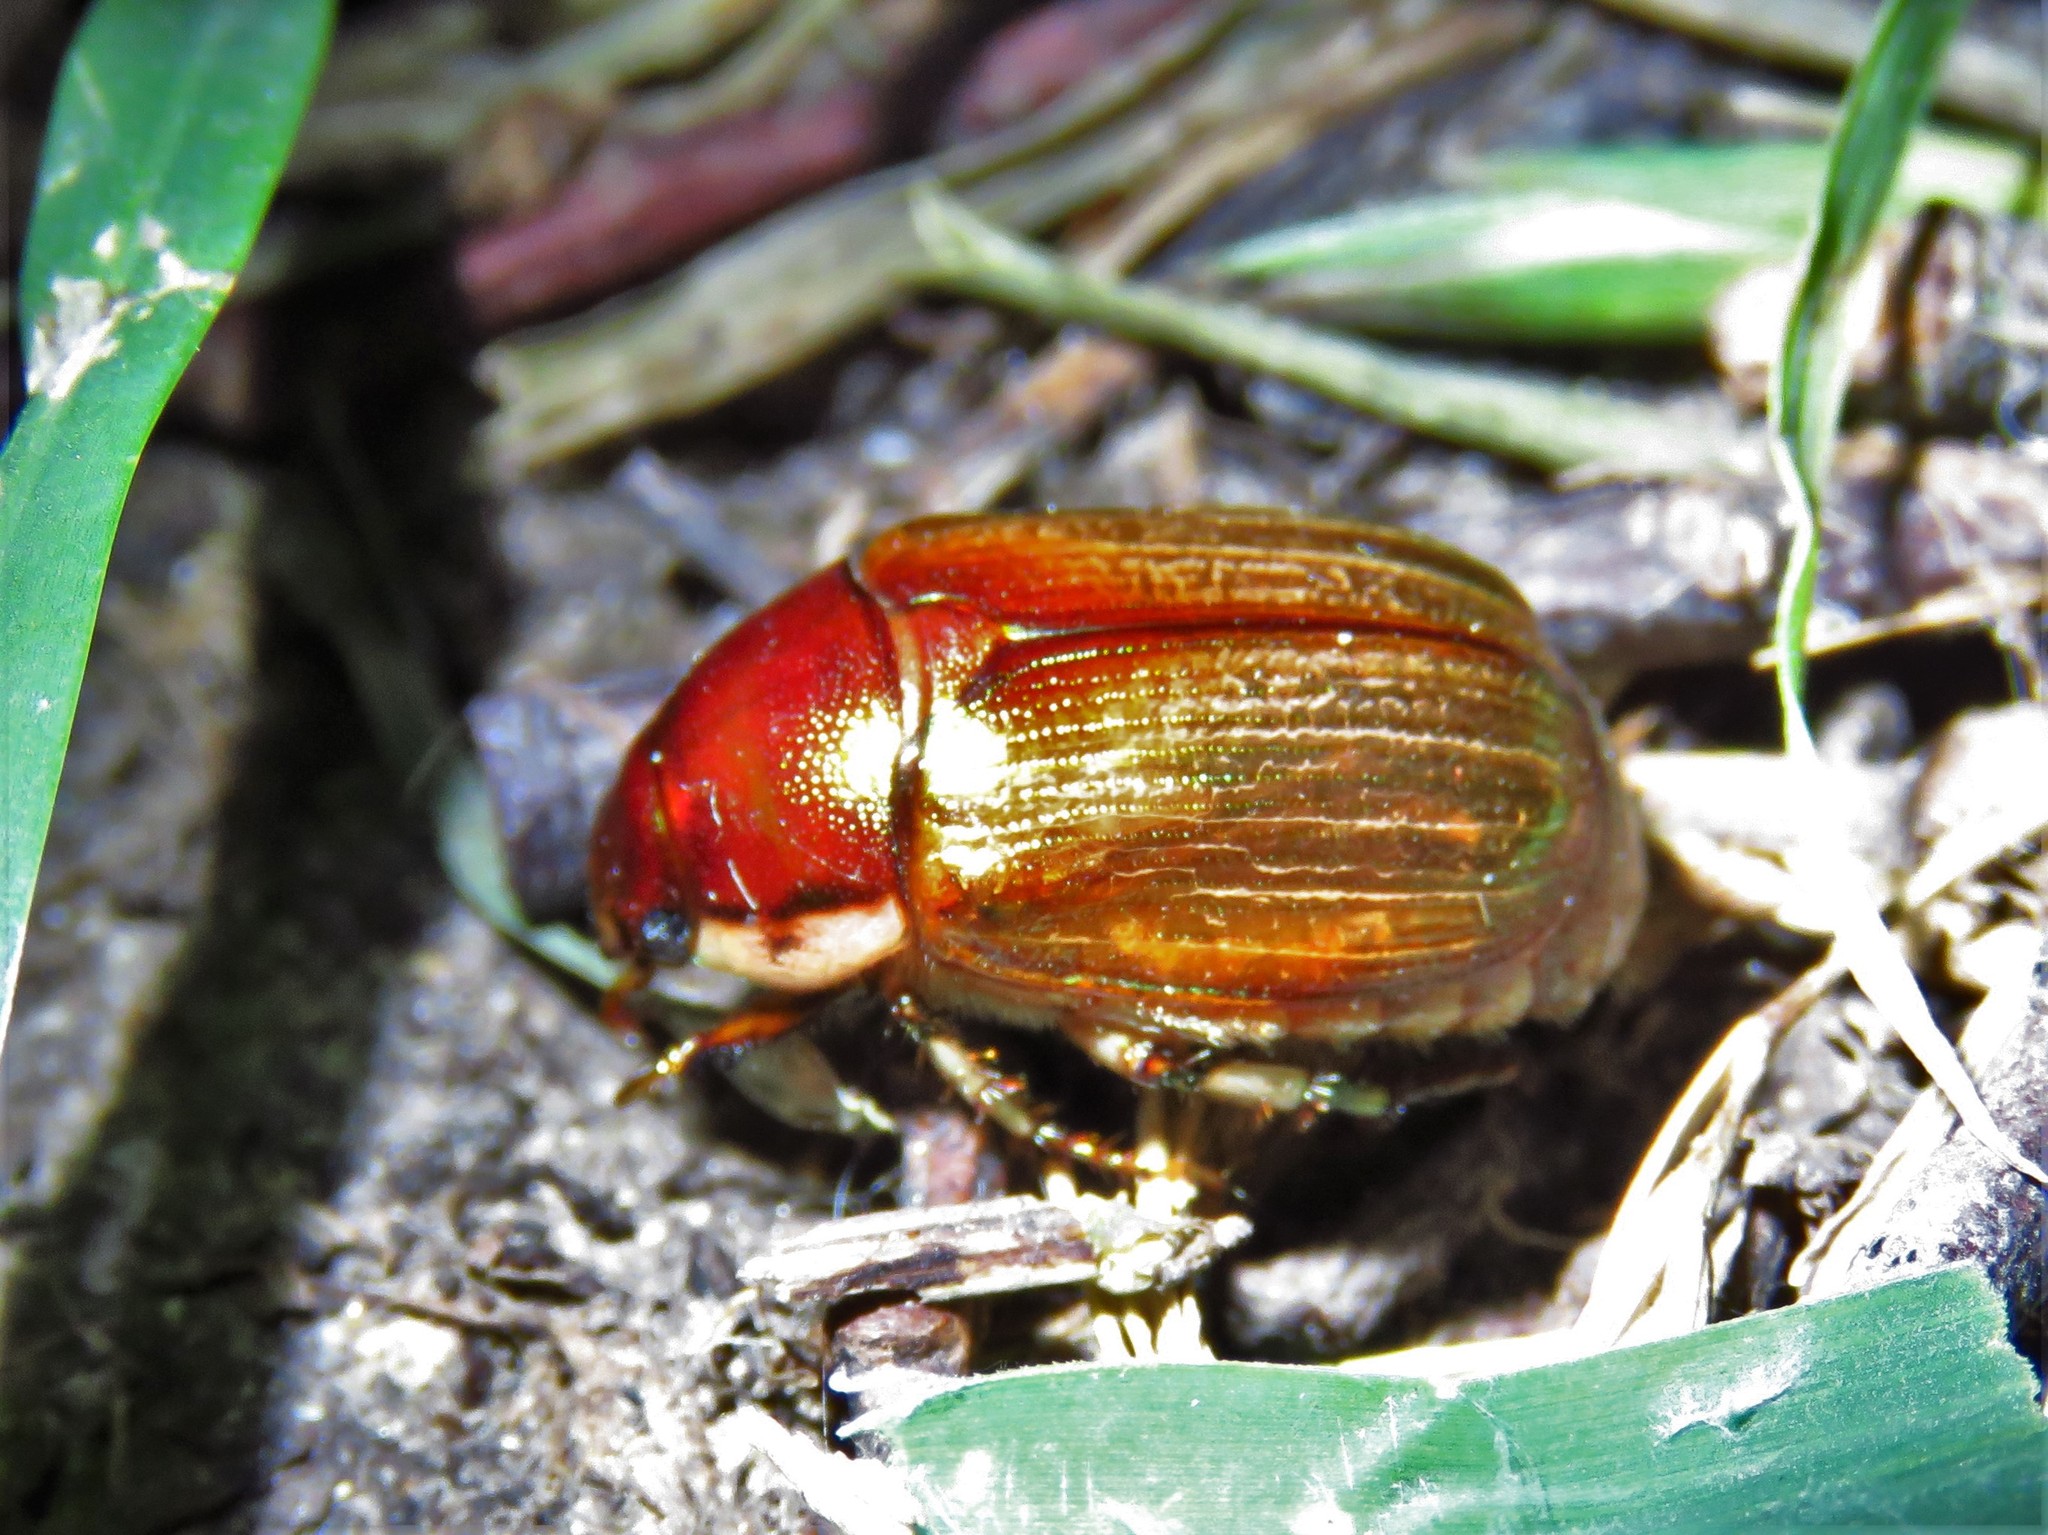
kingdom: Animalia
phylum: Arthropoda
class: Insecta
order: Coleoptera
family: Scarabaeidae
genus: Callistethus
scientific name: Callistethus marginatus
